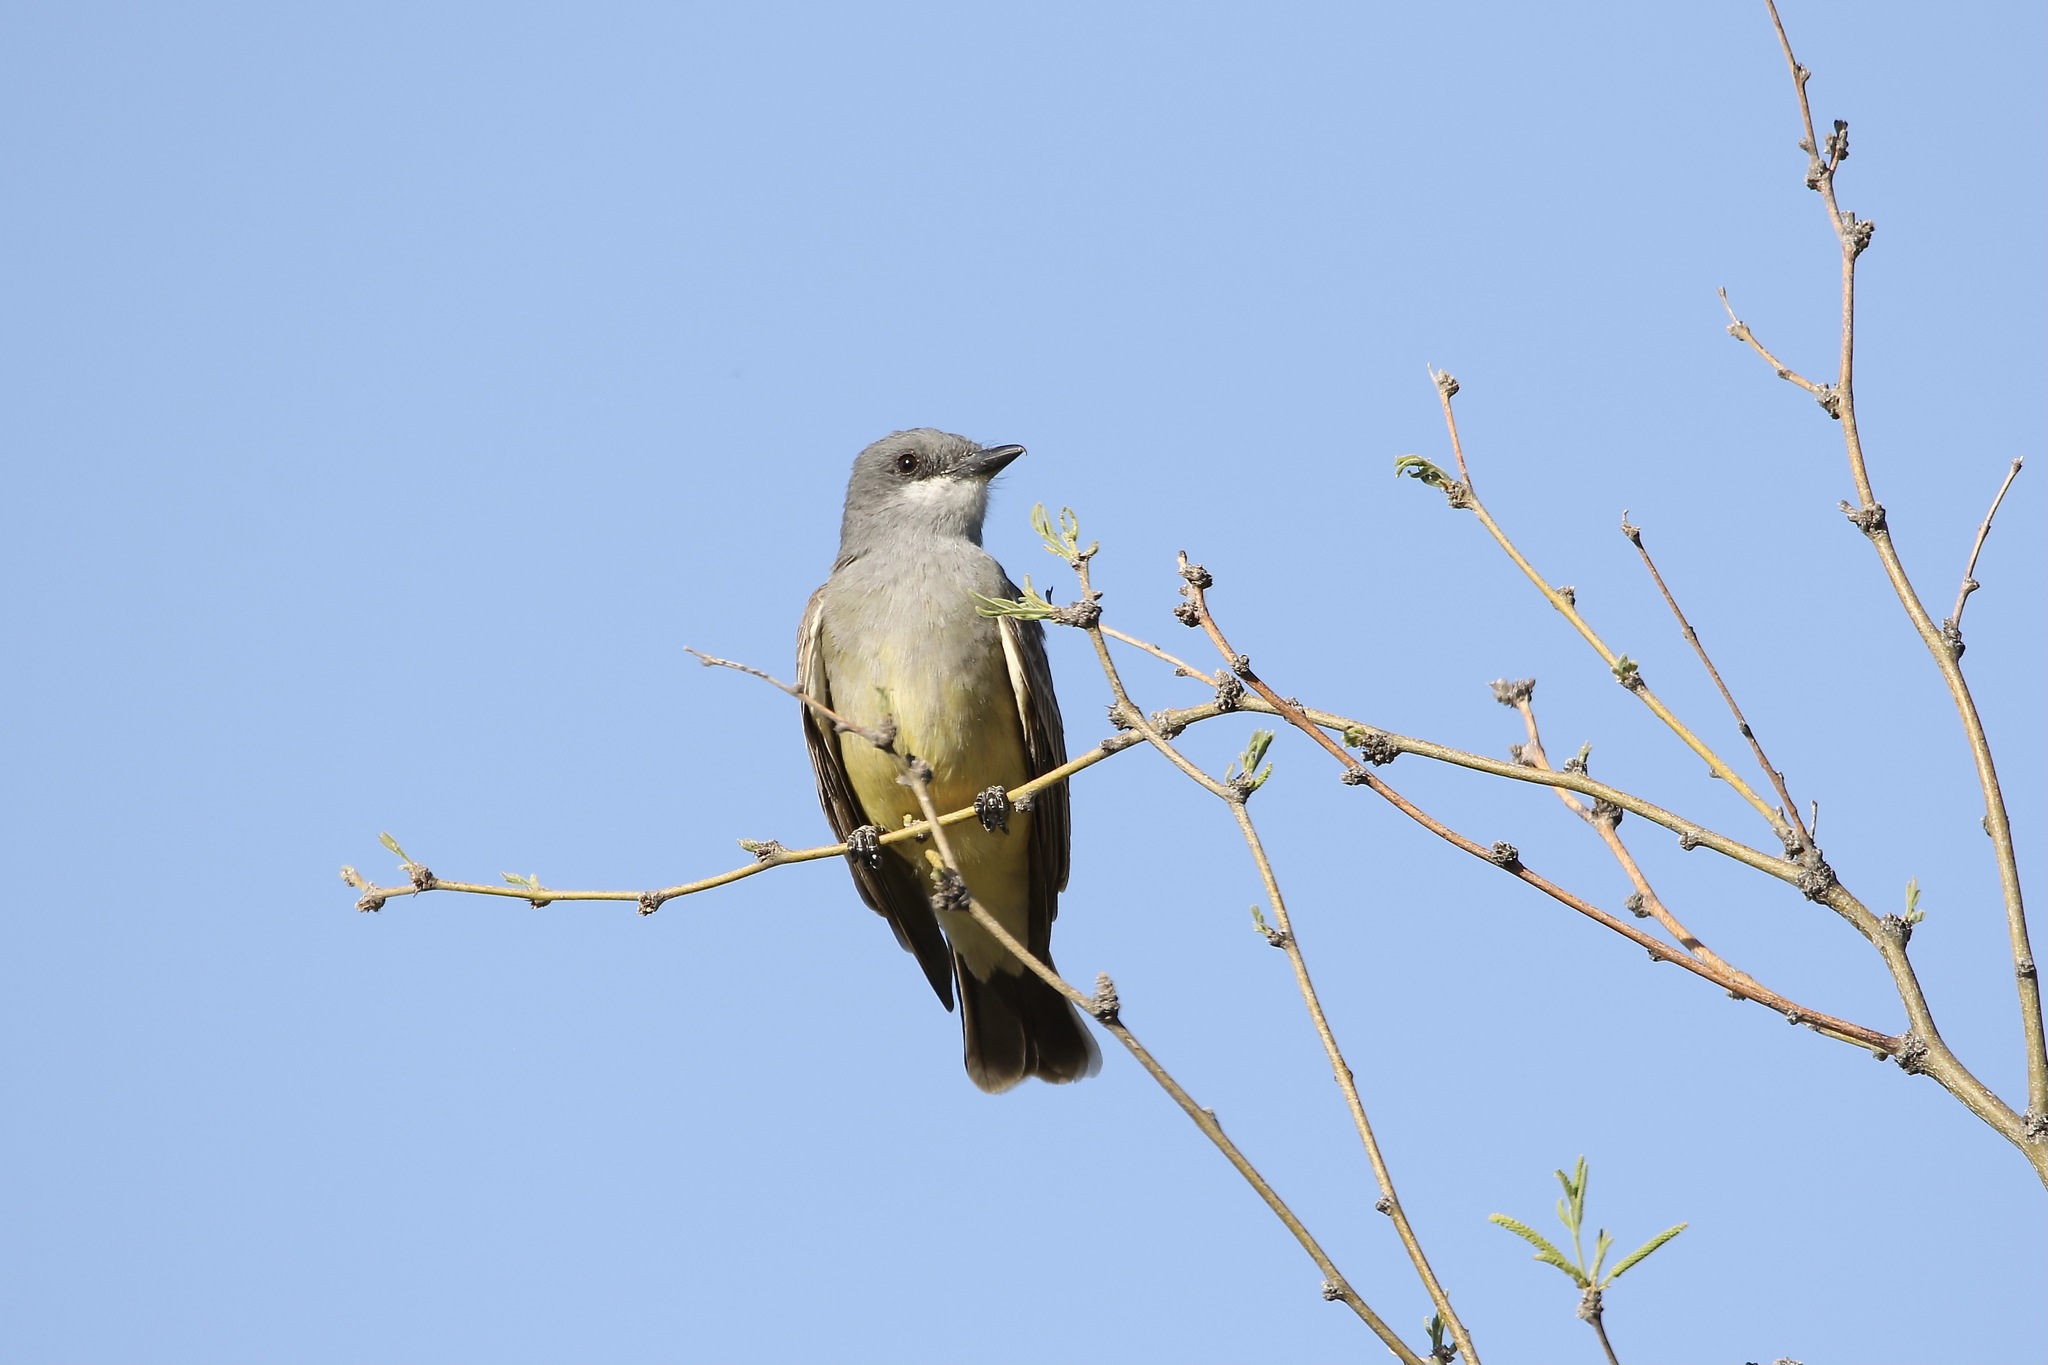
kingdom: Animalia
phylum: Chordata
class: Aves
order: Passeriformes
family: Tyrannidae
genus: Tyrannus
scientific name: Tyrannus vociferans
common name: Cassin's kingbird
